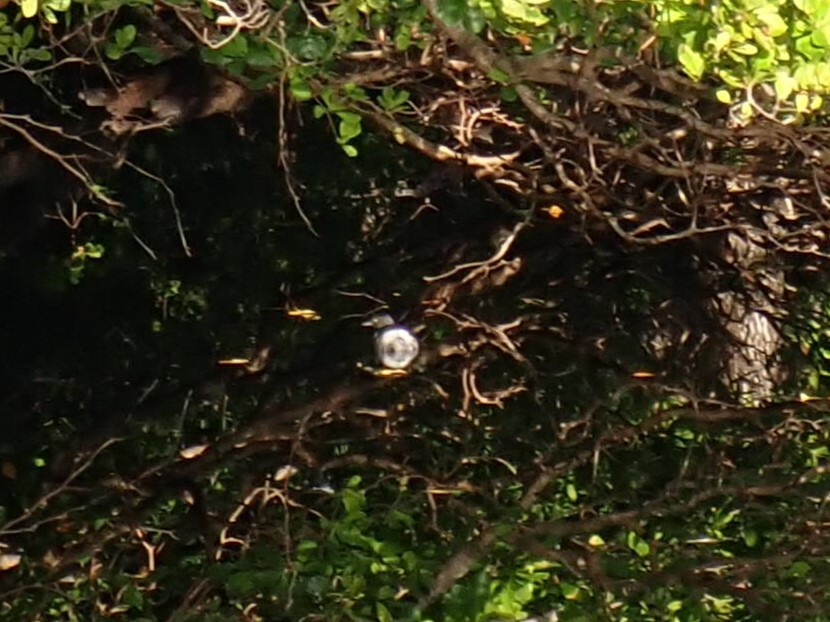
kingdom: Animalia
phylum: Chordata
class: Aves
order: Podicipediformes
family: Podicipedidae
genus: Tachybaptus
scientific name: Tachybaptus dominicus
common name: Least grebe
